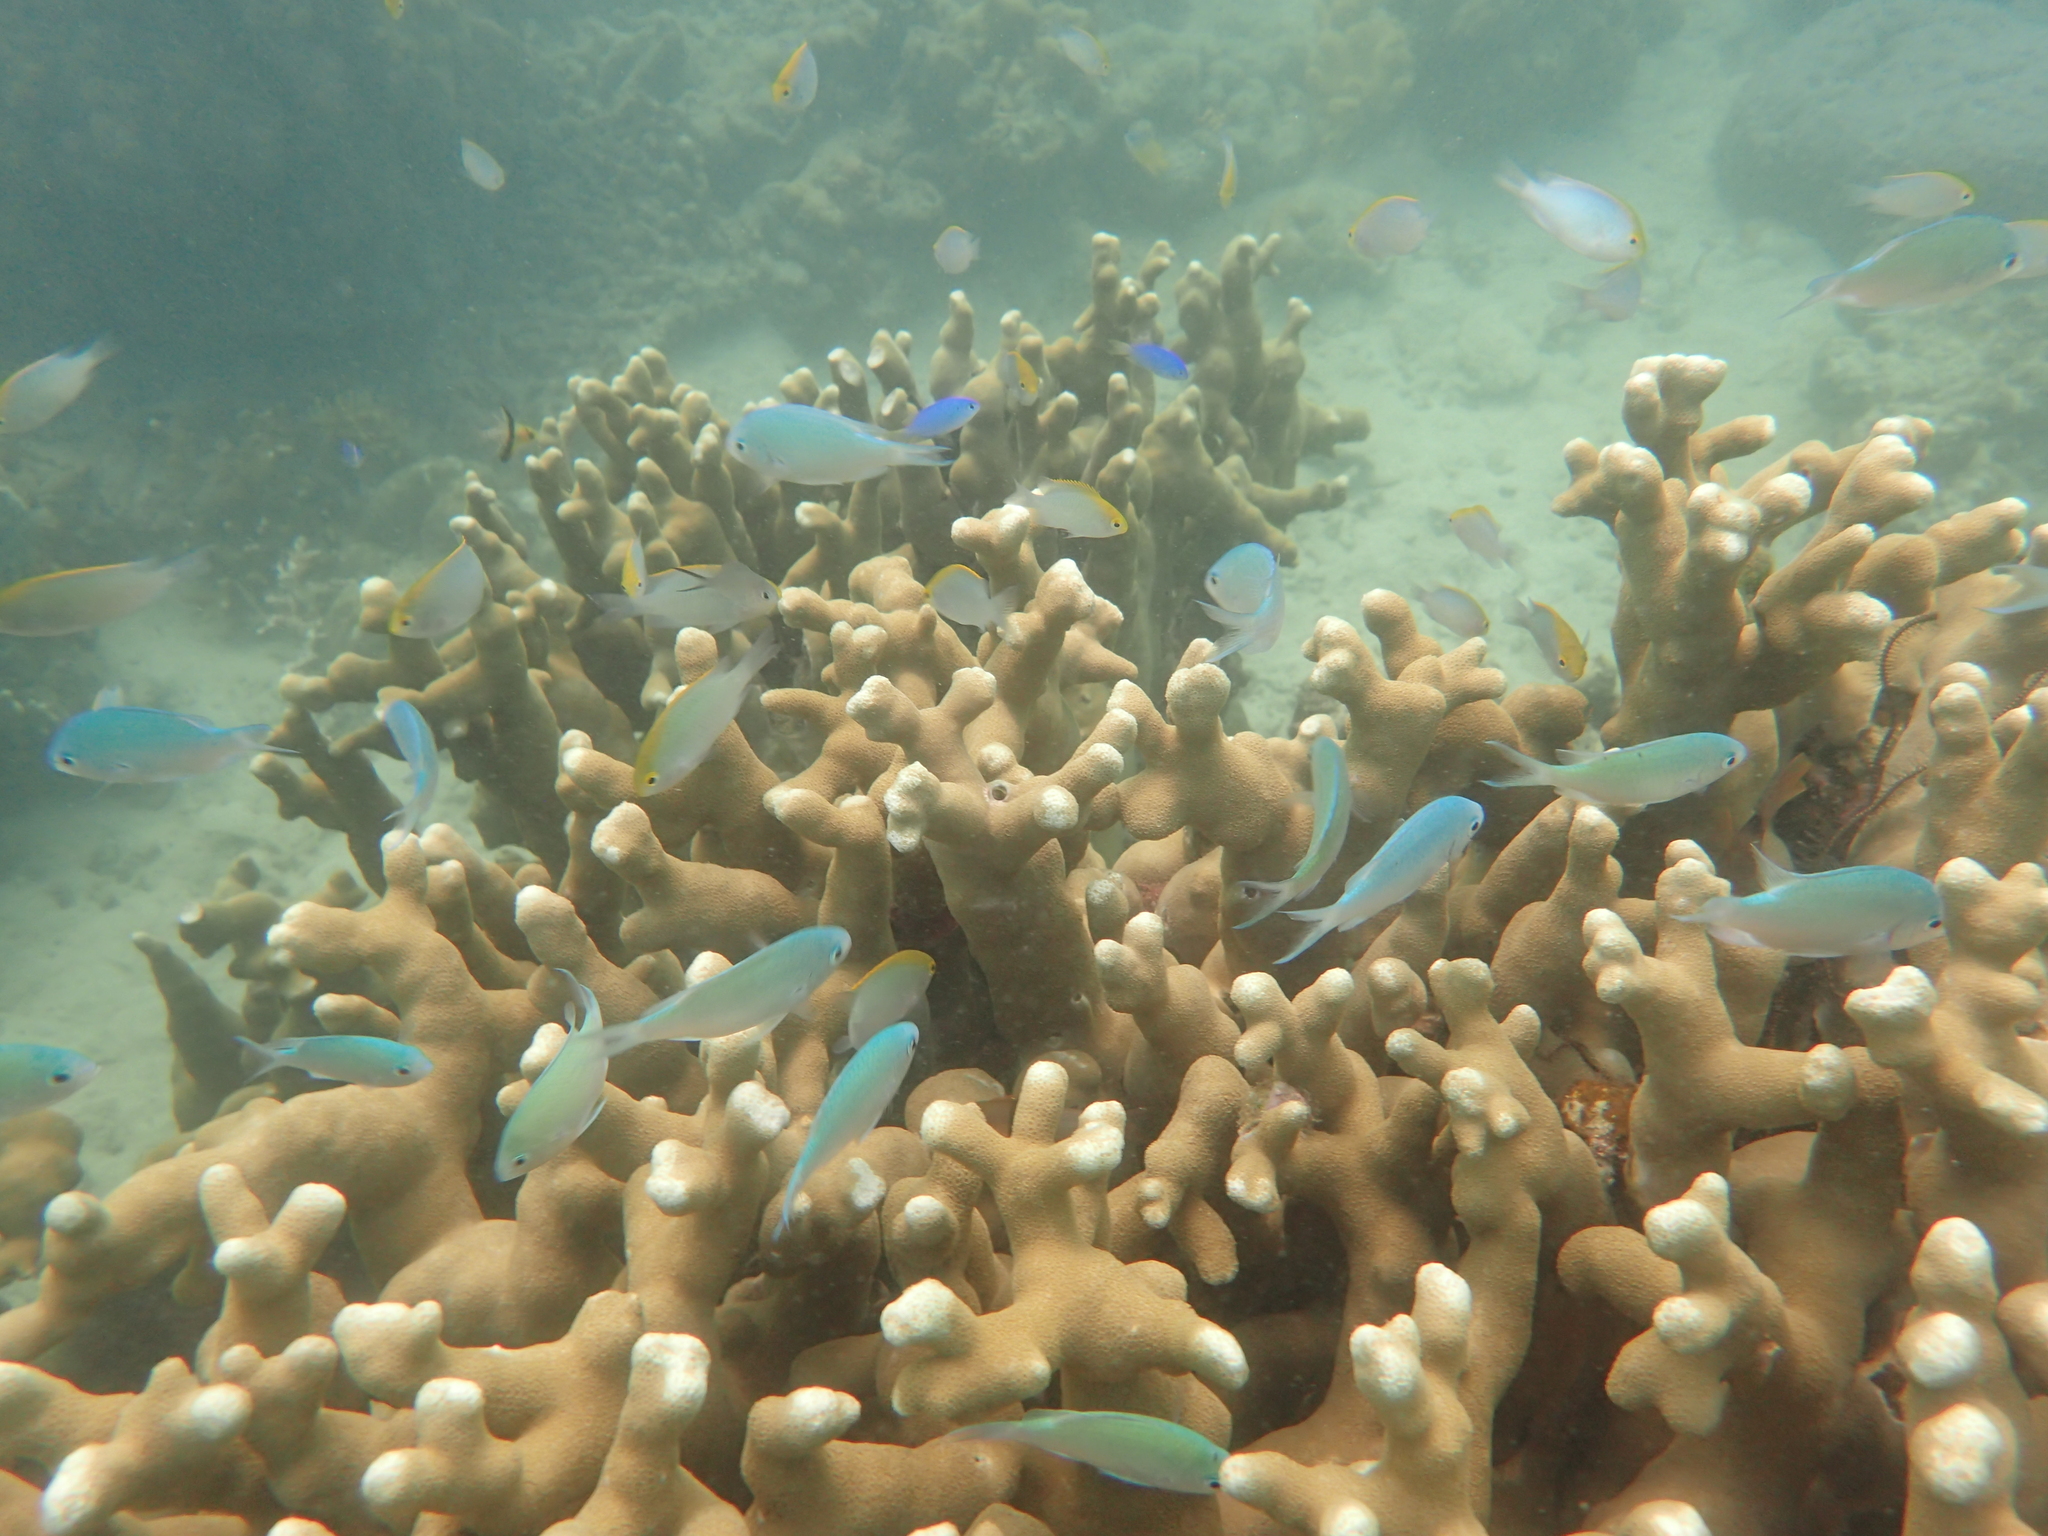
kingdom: Animalia
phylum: Chordata
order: Perciformes
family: Pomacentridae
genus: Pomacentrus
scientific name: Pomacentrus aurifrons
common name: Yellowhead damselfish
